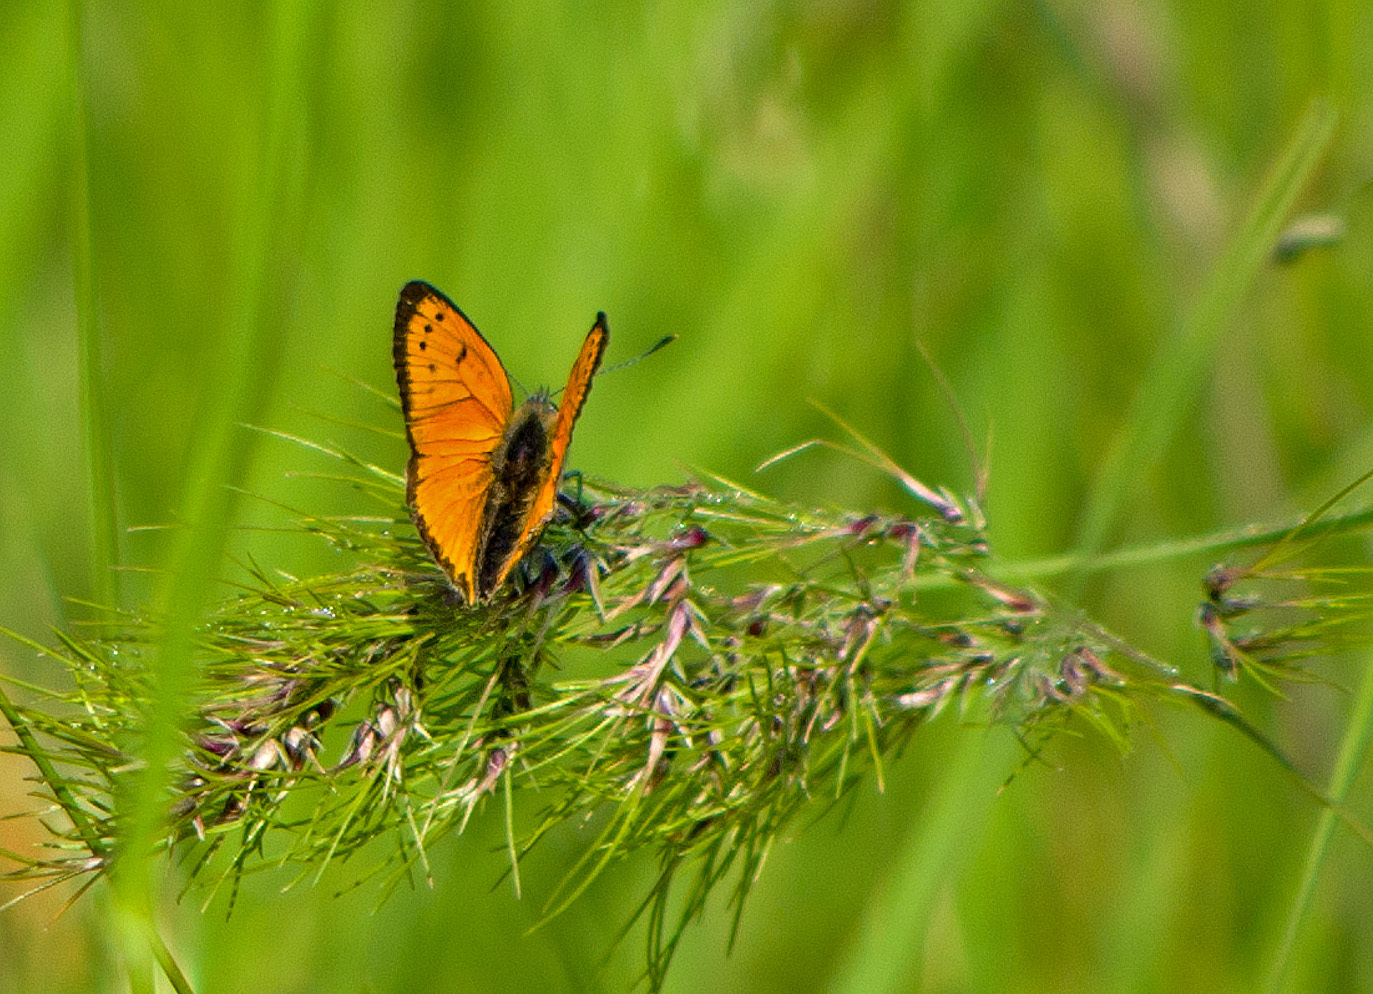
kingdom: Animalia
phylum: Arthropoda
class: Insecta
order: Lepidoptera
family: Lycaenidae
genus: Polyommatus
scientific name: Polyommatus ottomanus
